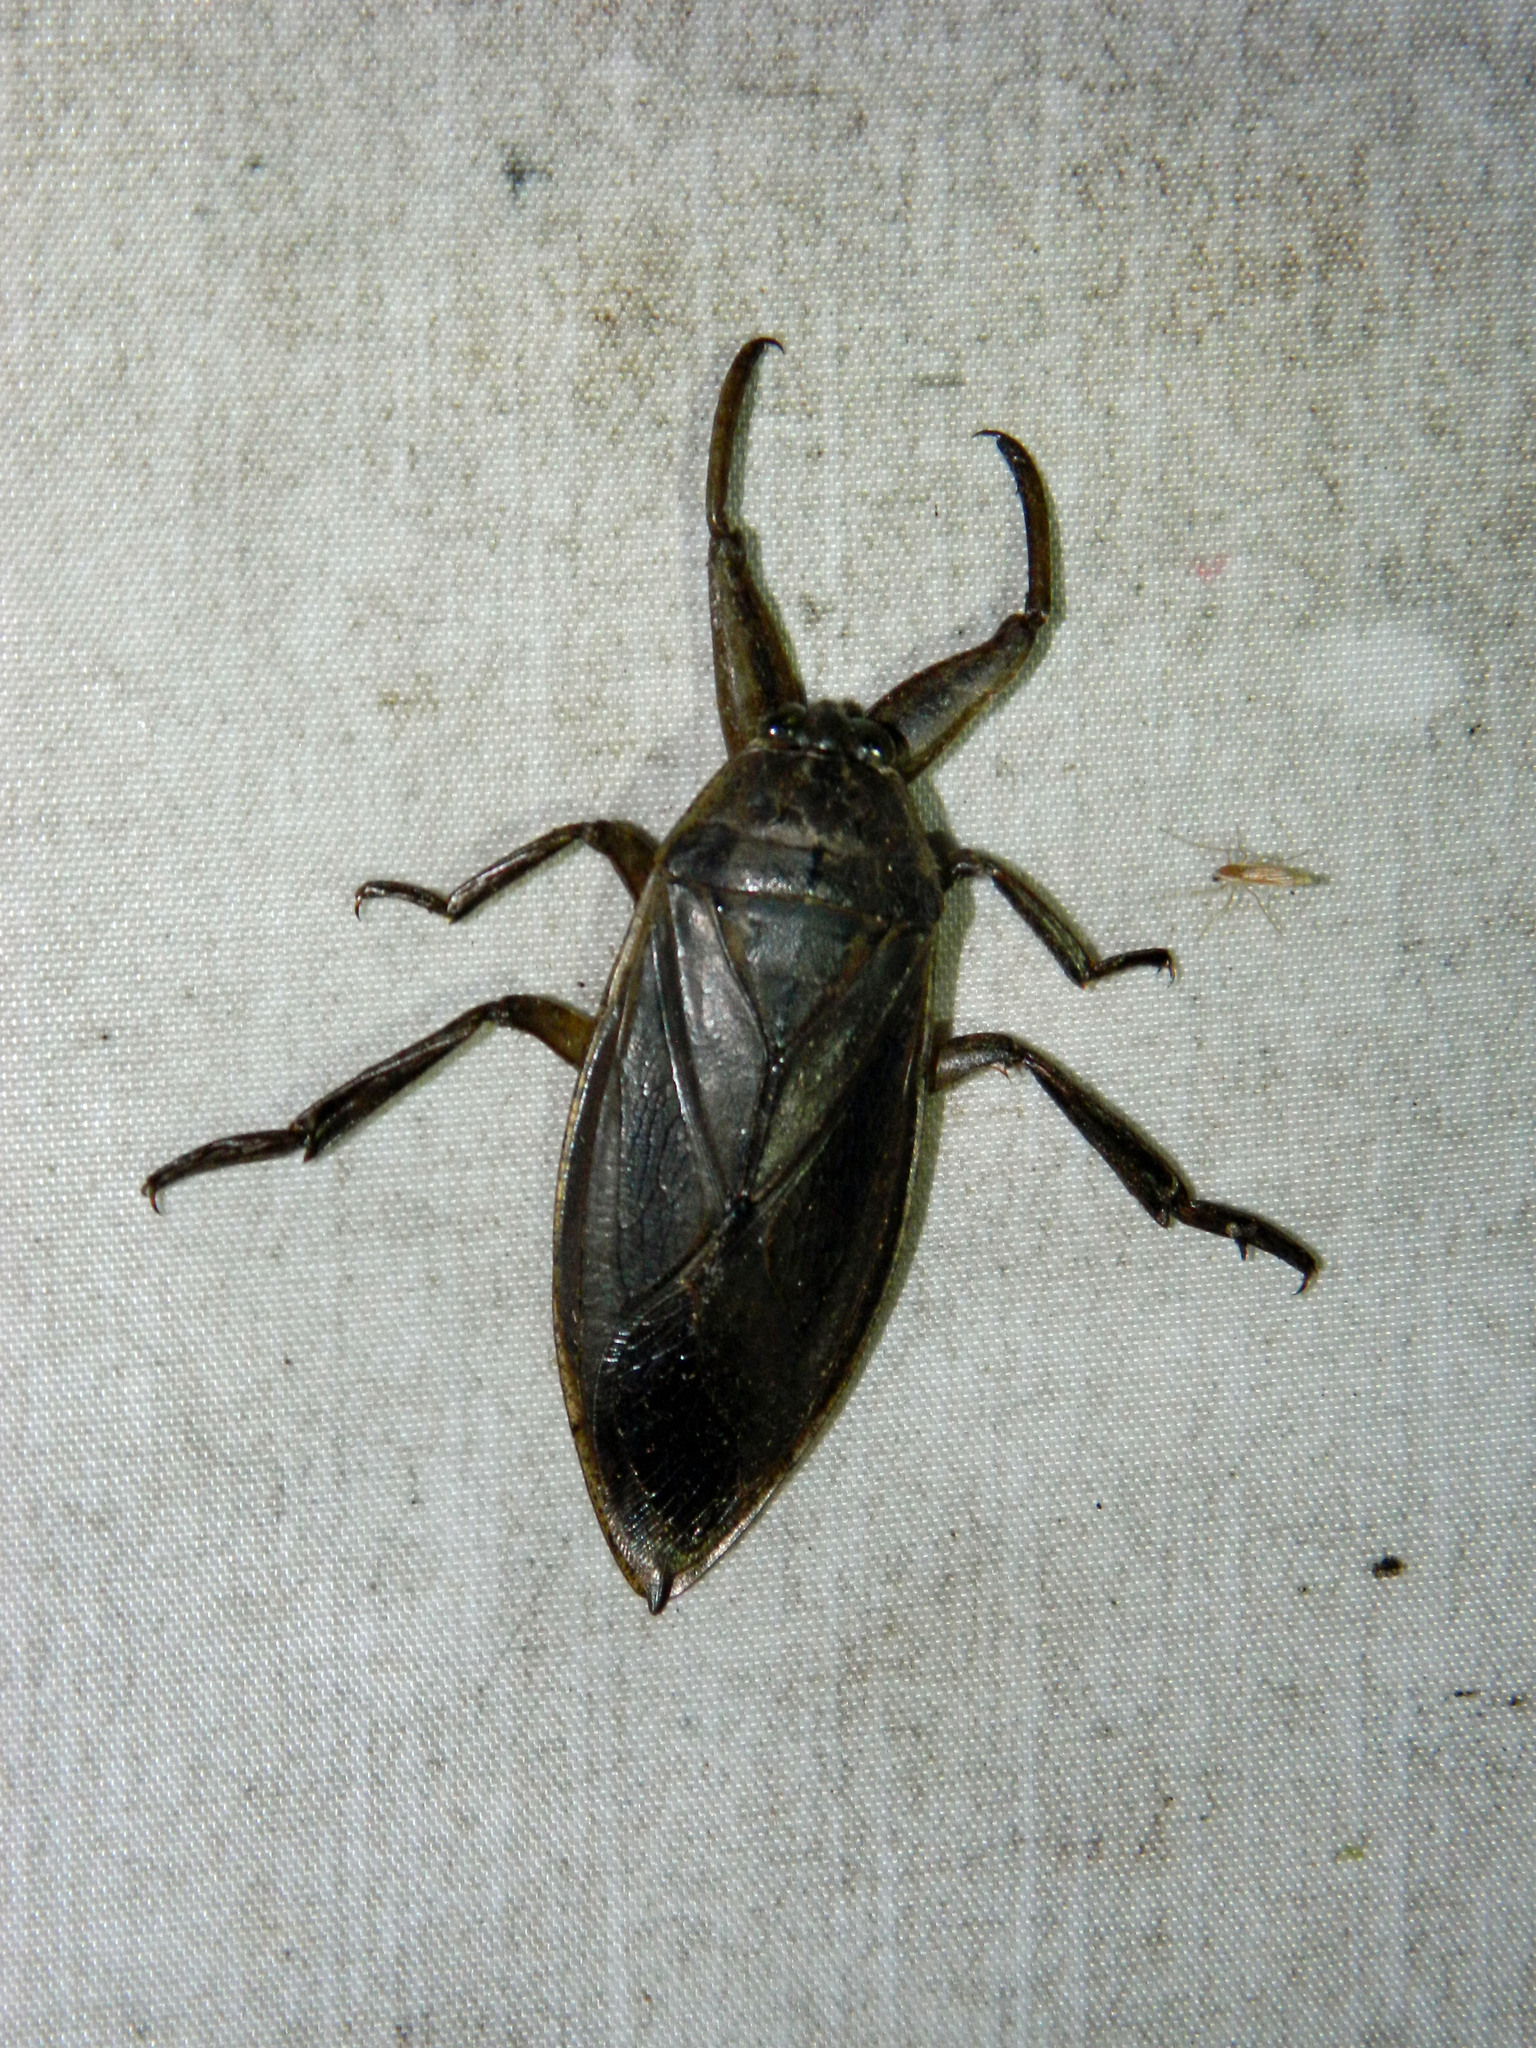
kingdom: Animalia
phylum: Arthropoda
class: Insecta
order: Hemiptera
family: Belostomatidae
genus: Lethocerus
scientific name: Lethocerus americanus
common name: Giant water bug
